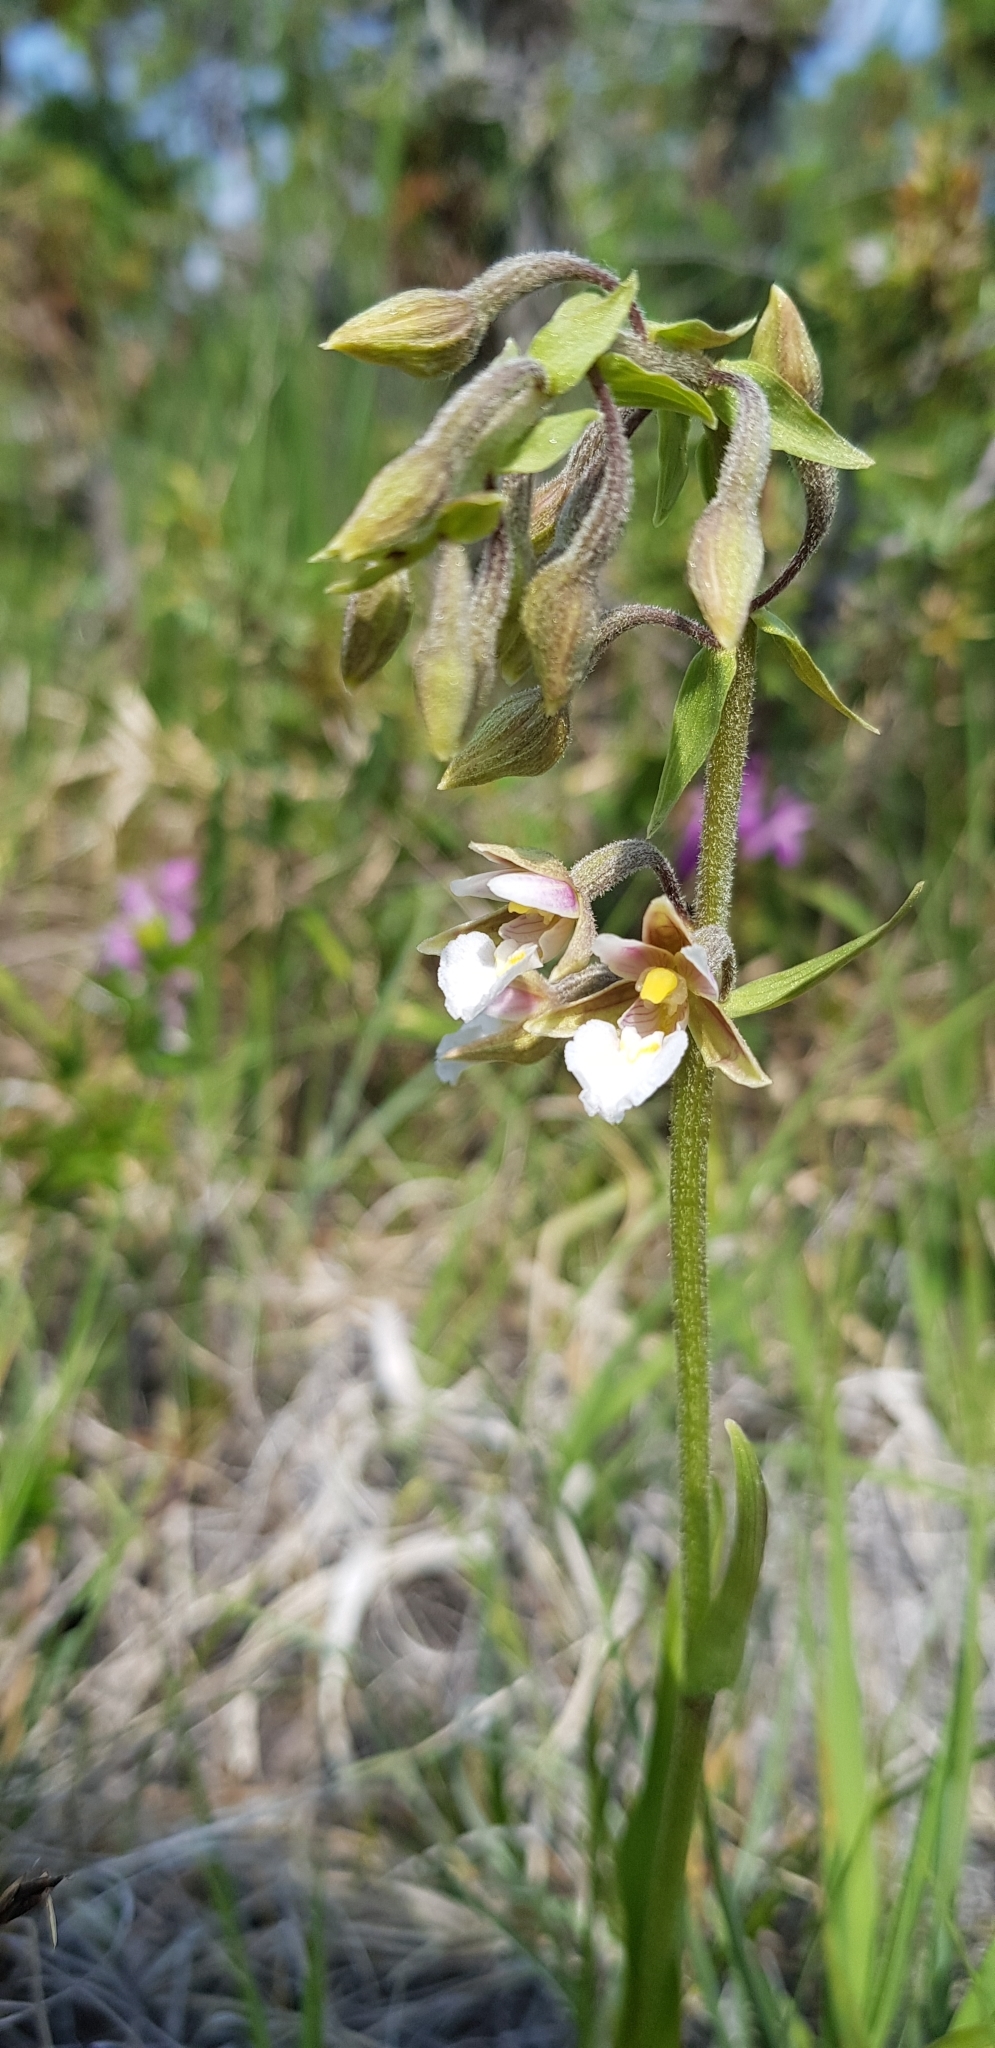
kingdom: Plantae
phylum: Tracheophyta
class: Liliopsida
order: Asparagales
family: Orchidaceae
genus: Epipactis
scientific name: Epipactis palustris
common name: Marsh helleborine
